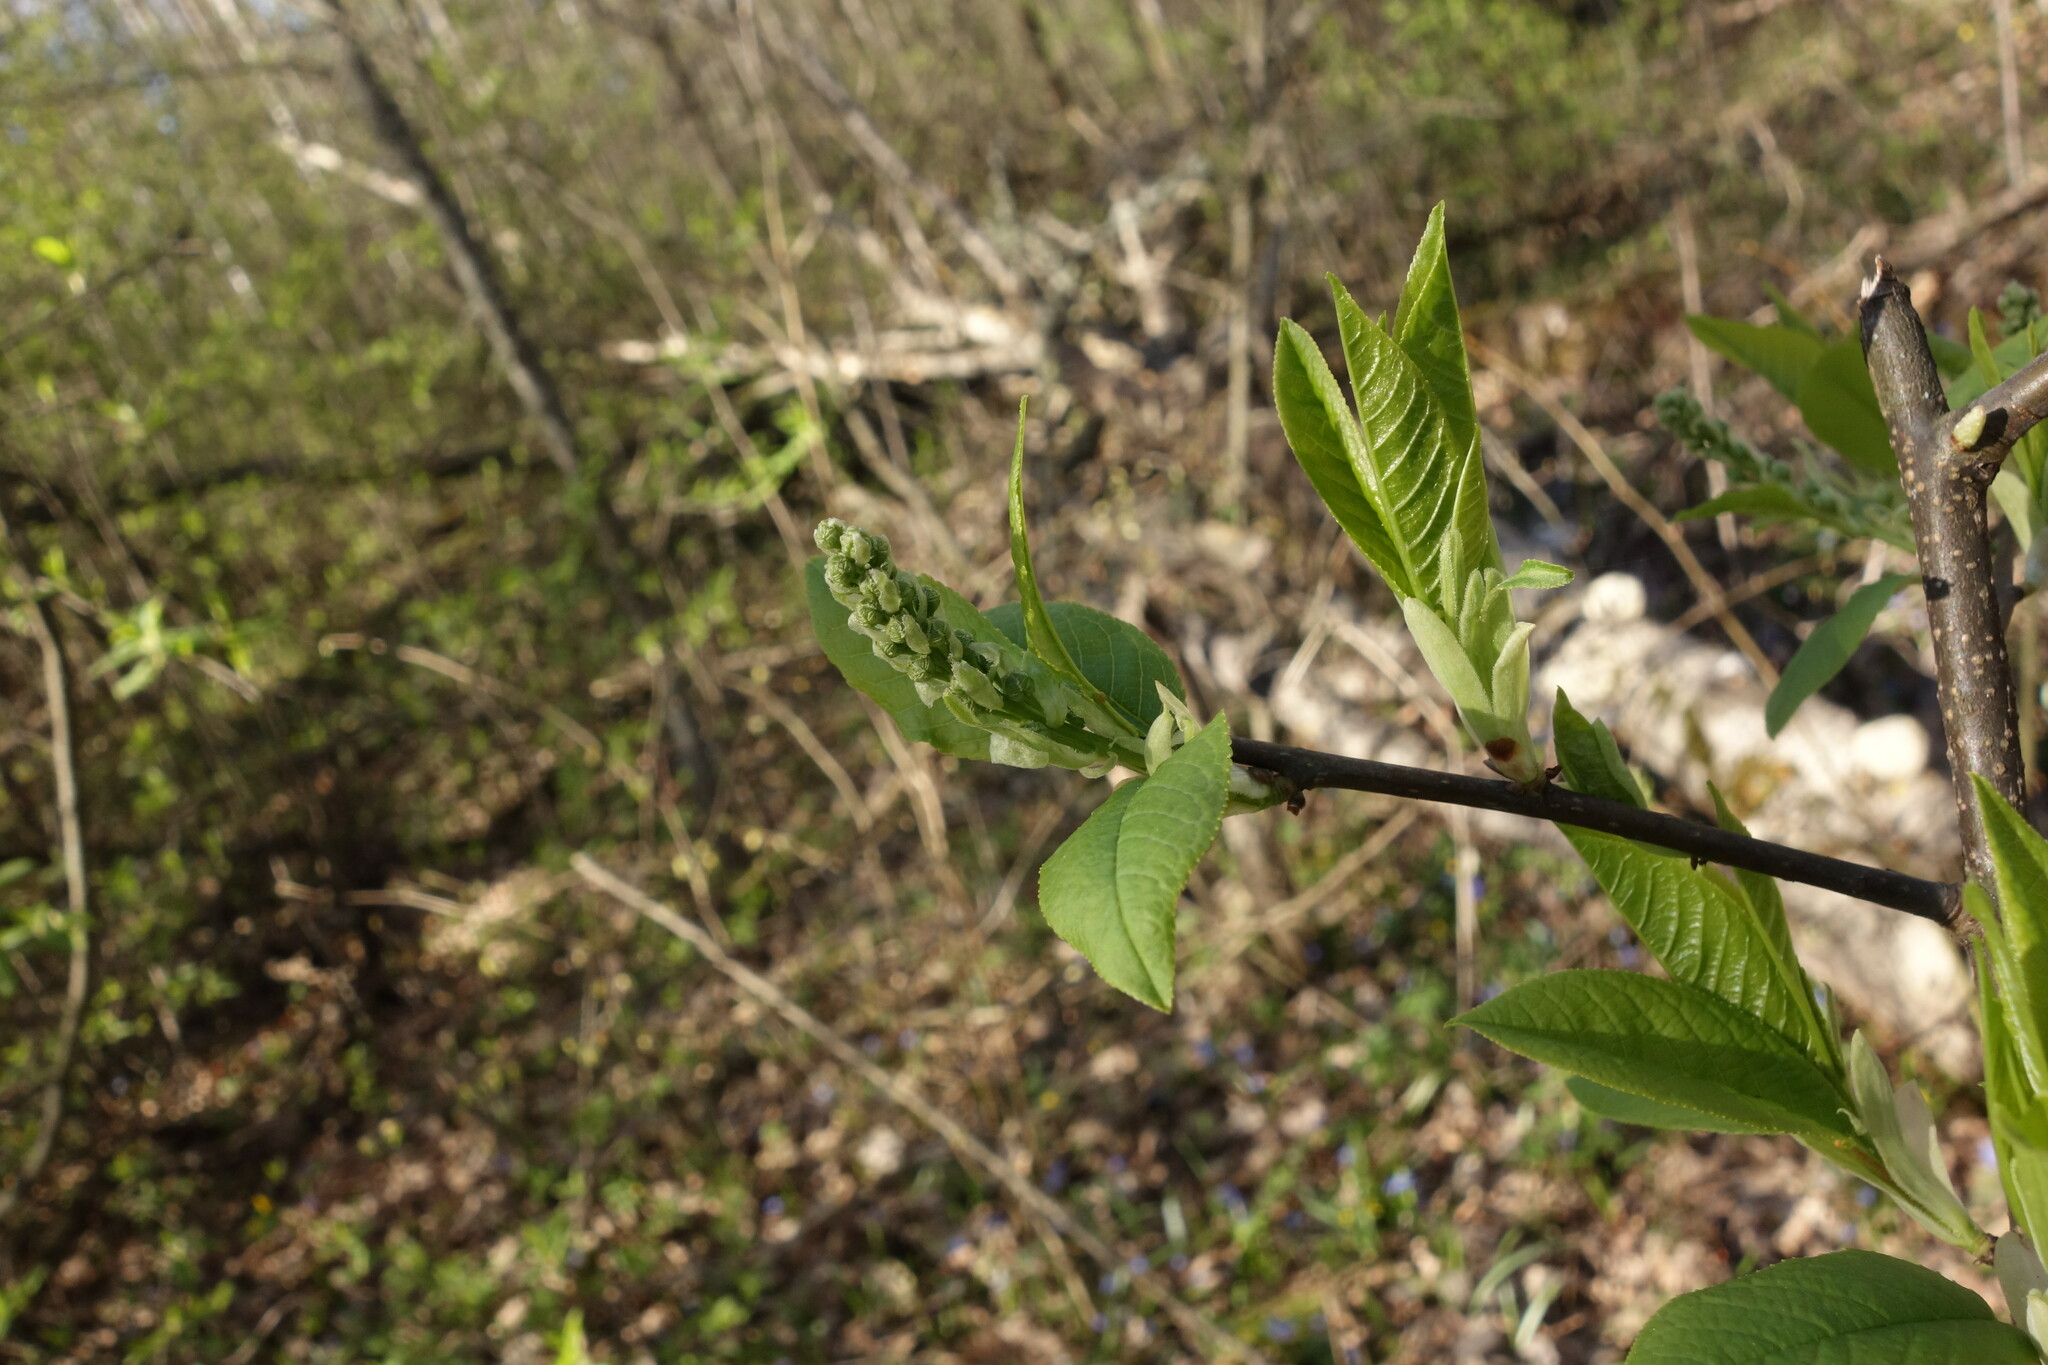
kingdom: Plantae
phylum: Tracheophyta
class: Magnoliopsida
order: Rosales
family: Rosaceae
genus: Prunus
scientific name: Prunus padus
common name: Bird cherry
